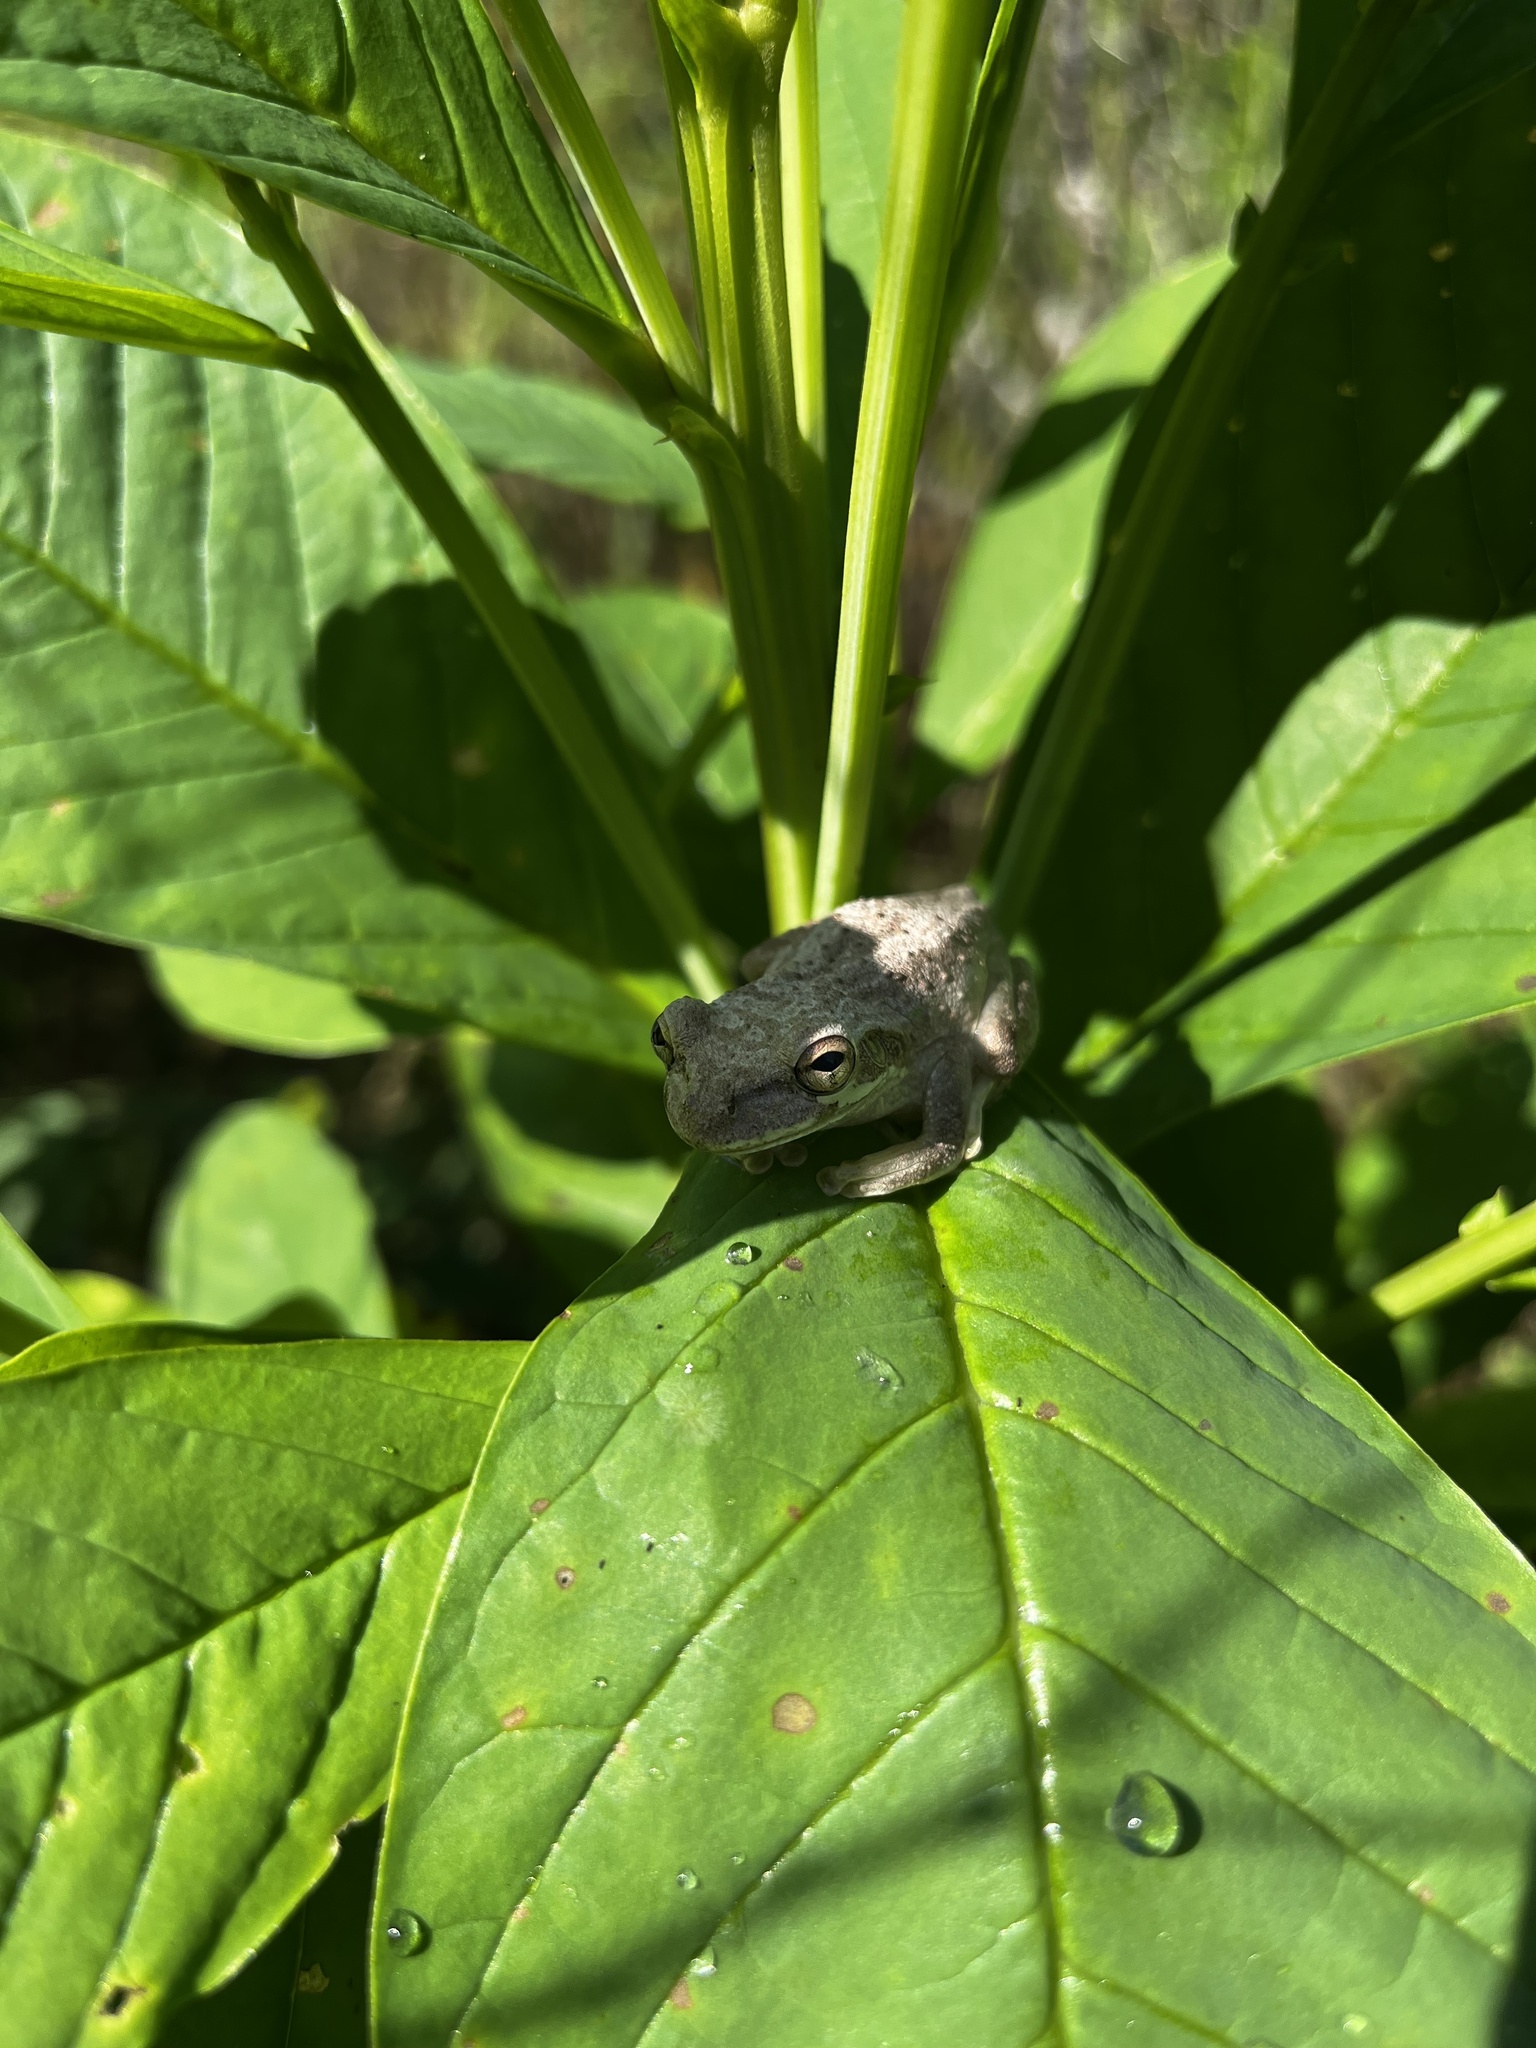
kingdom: Animalia
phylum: Chordata
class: Amphibia
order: Anura
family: Hylidae
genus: Osteopilus
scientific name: Osteopilus septentrionalis
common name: Cuban treefrog
